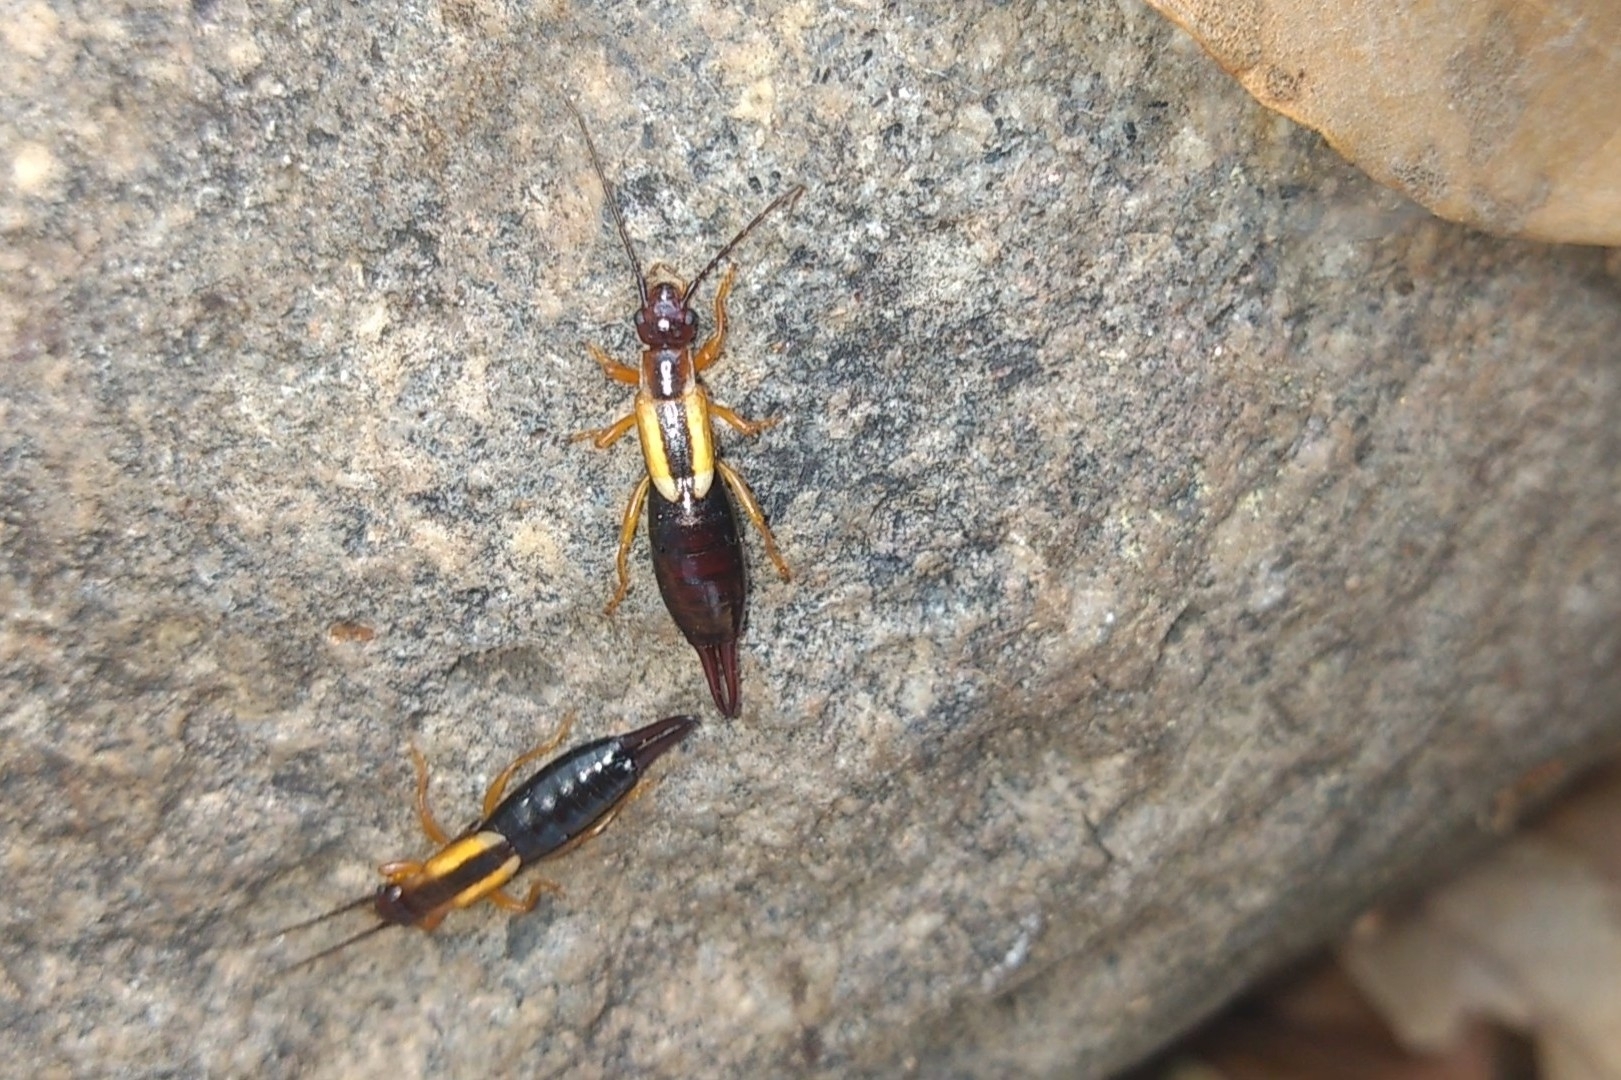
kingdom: Animalia
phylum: Arthropoda
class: Insecta
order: Dermaptera
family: Forficulidae
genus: Doru
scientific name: Doru taeniatum
